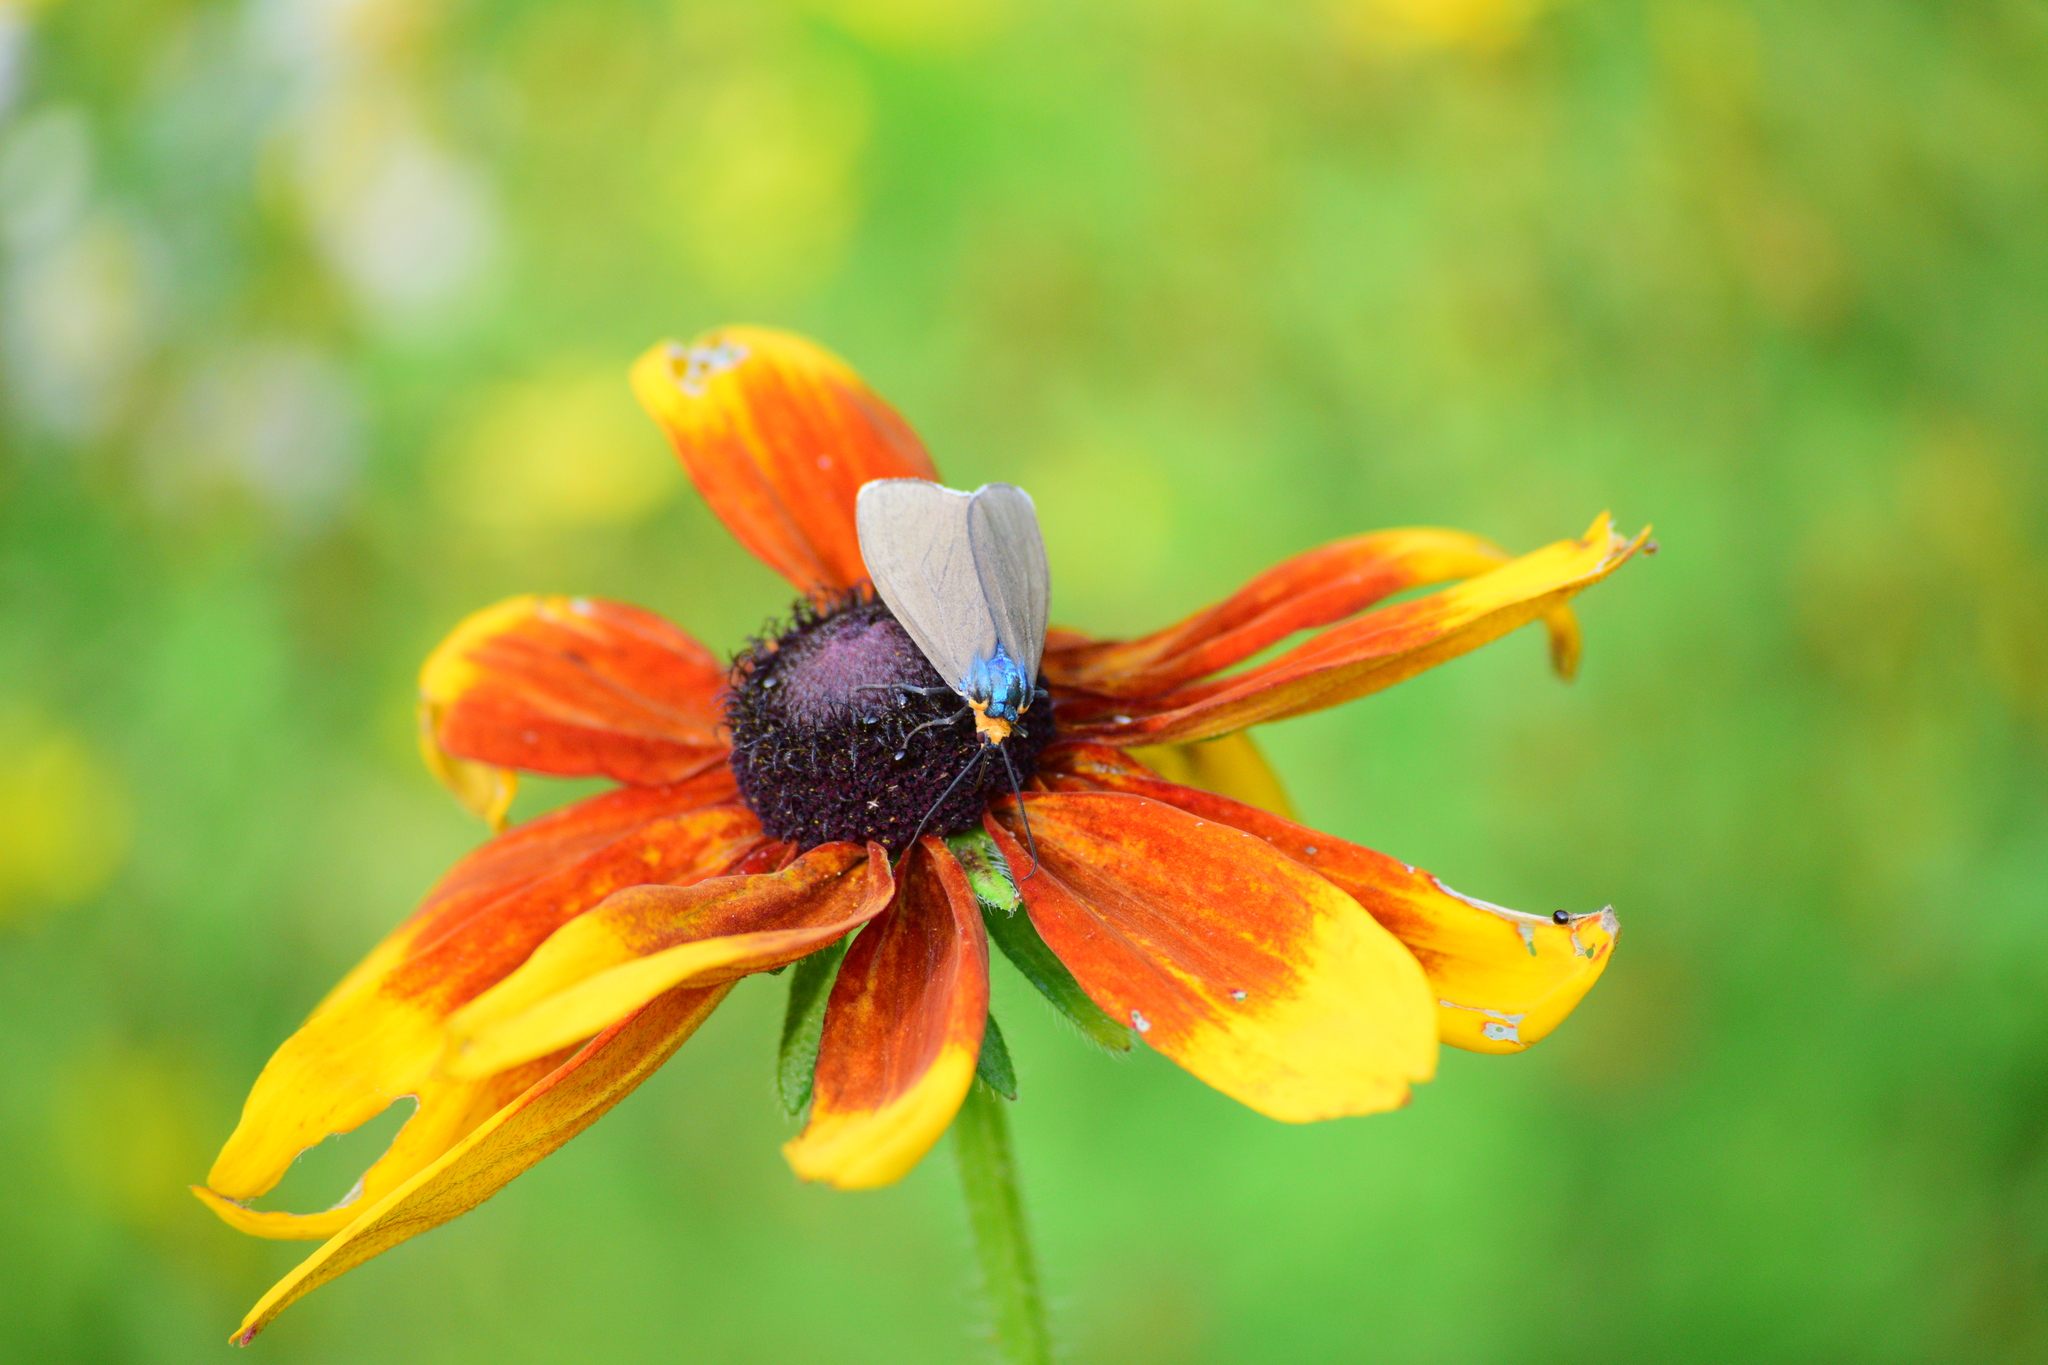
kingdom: Animalia
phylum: Arthropoda
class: Insecta
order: Lepidoptera
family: Erebidae
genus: Ctenucha
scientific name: Ctenucha virginica
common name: Virginia ctenucha moth
